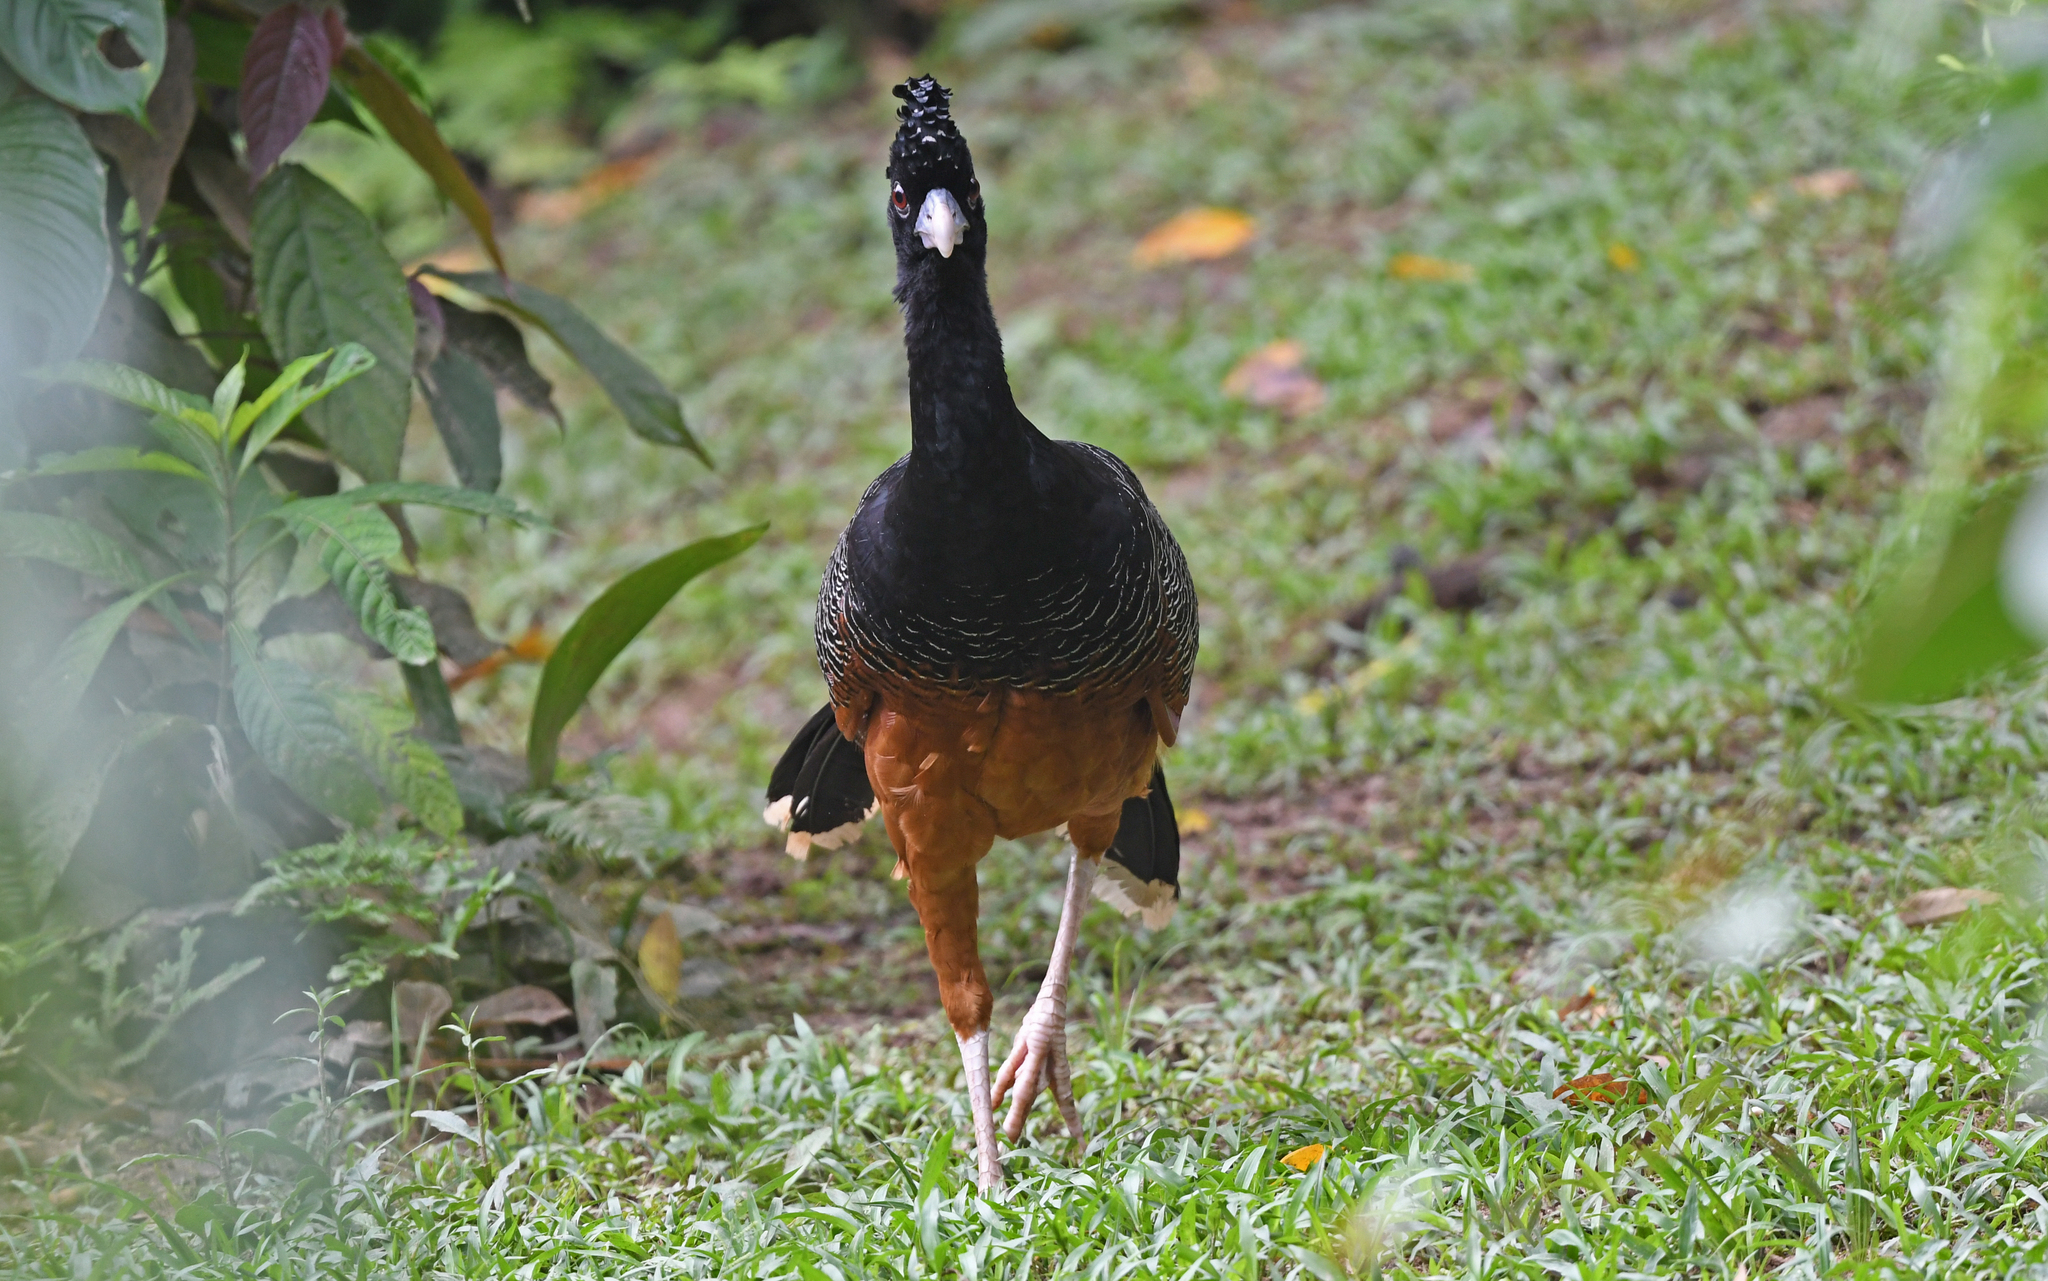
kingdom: Animalia
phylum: Chordata
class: Aves
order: Galliformes
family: Cracidae
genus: Crax
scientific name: Crax alberti
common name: Blue-billed curassow
